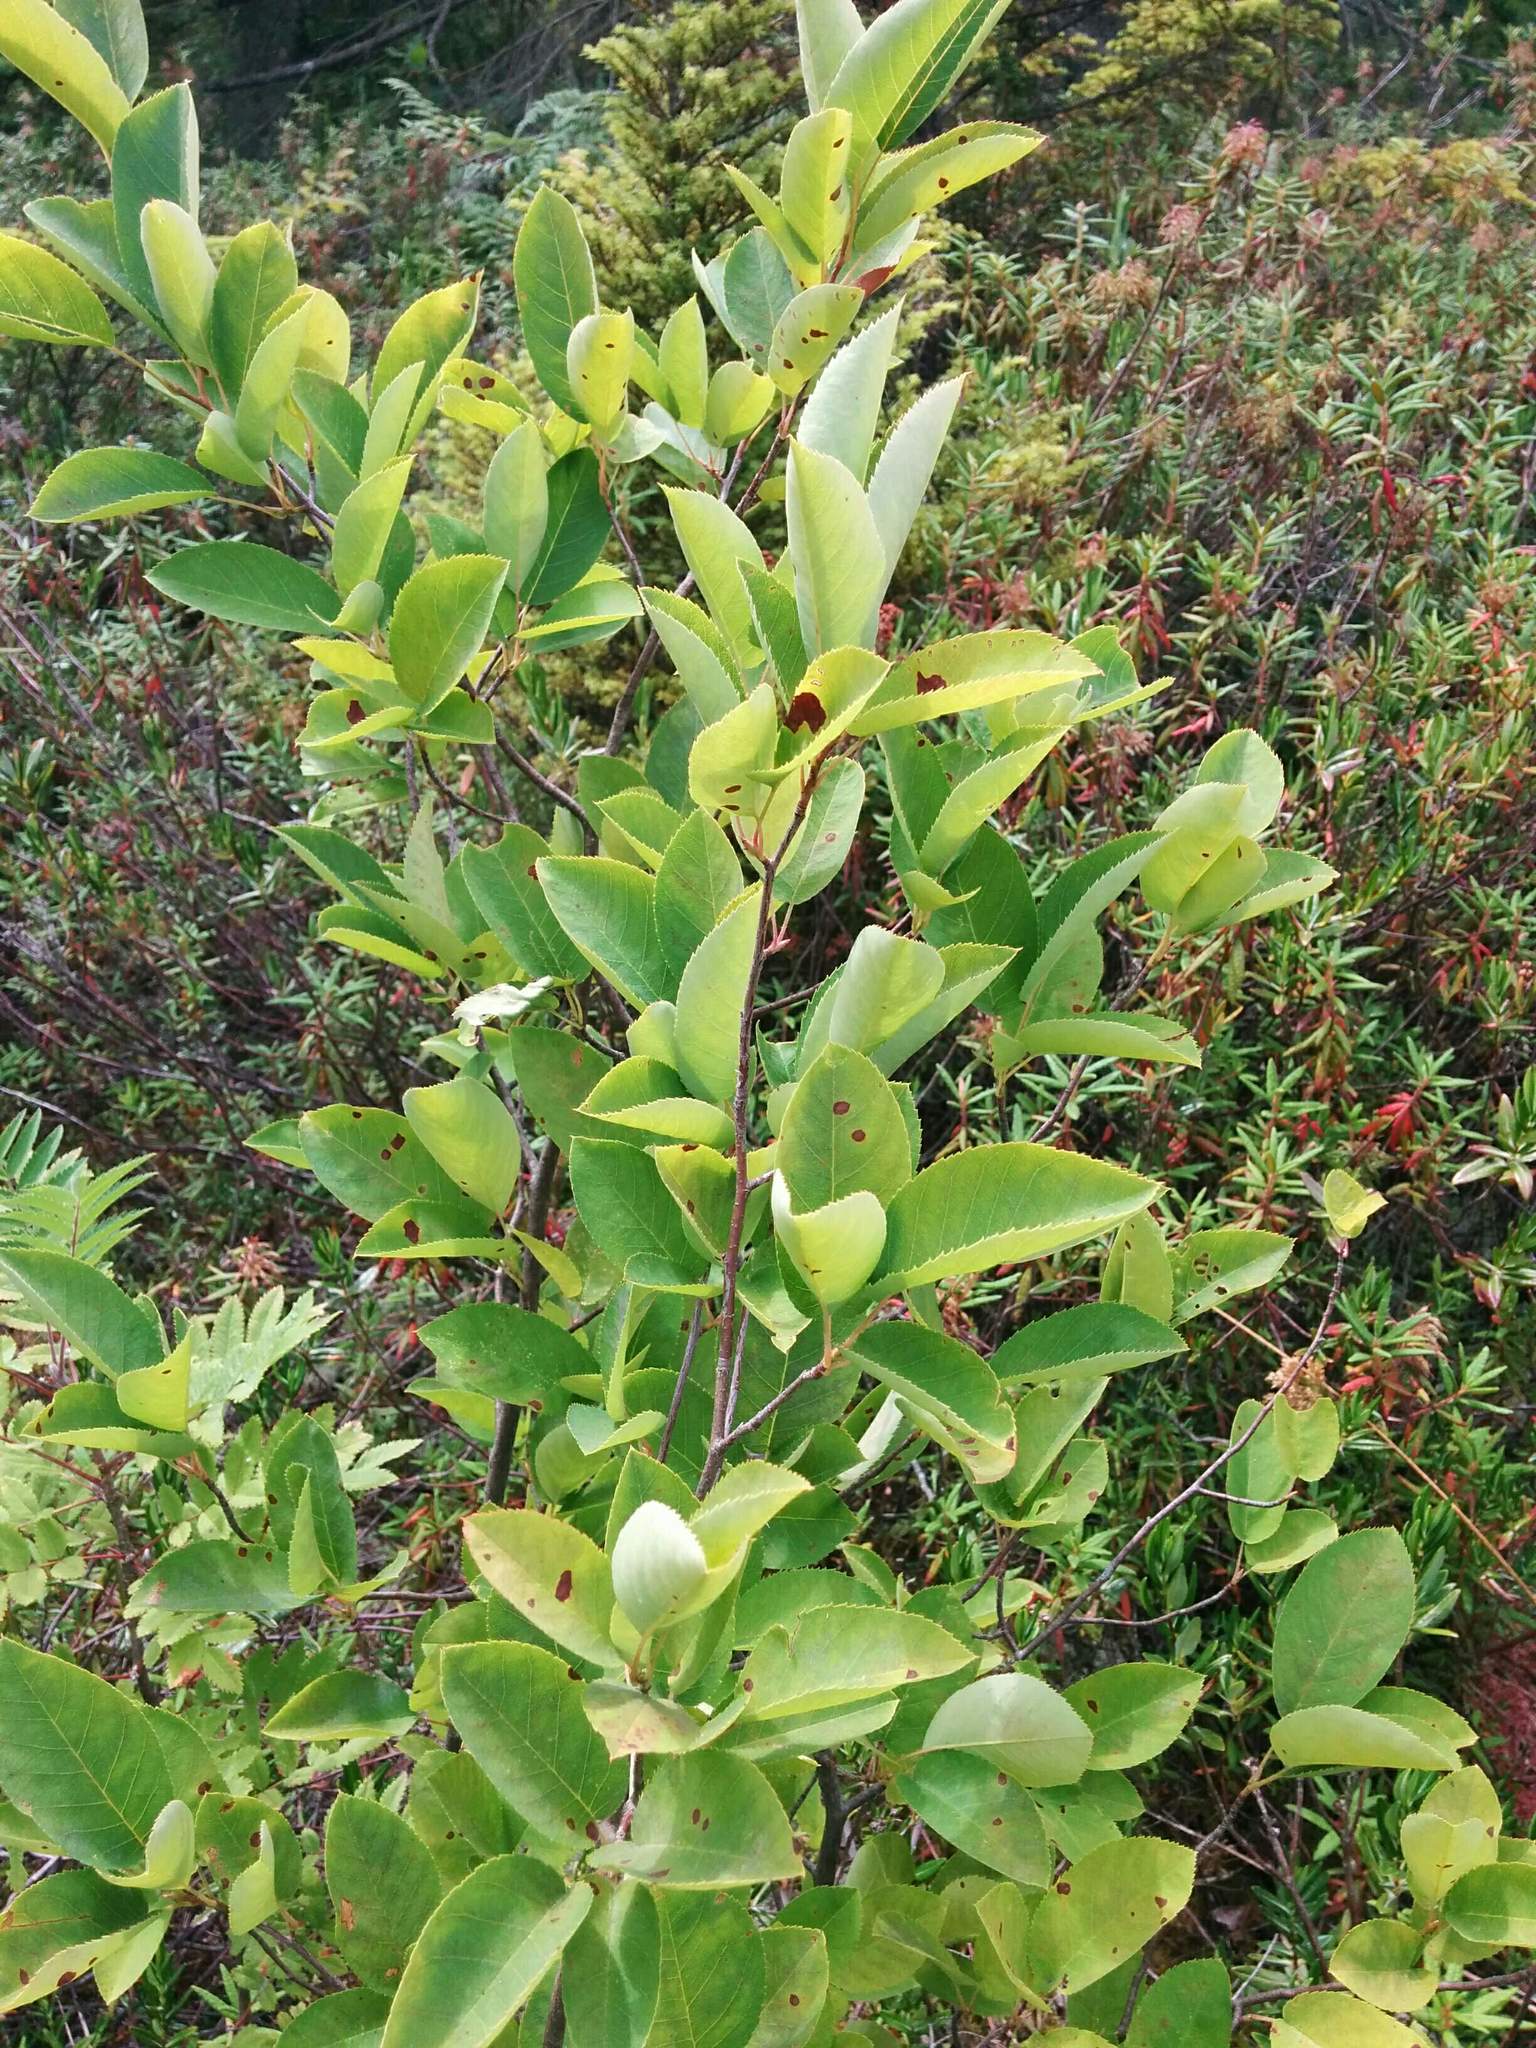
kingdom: Plantae
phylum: Tracheophyta
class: Magnoliopsida
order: Rosales
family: Rosaceae
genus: Amelanchier
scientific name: Amelanchier alnifolia
